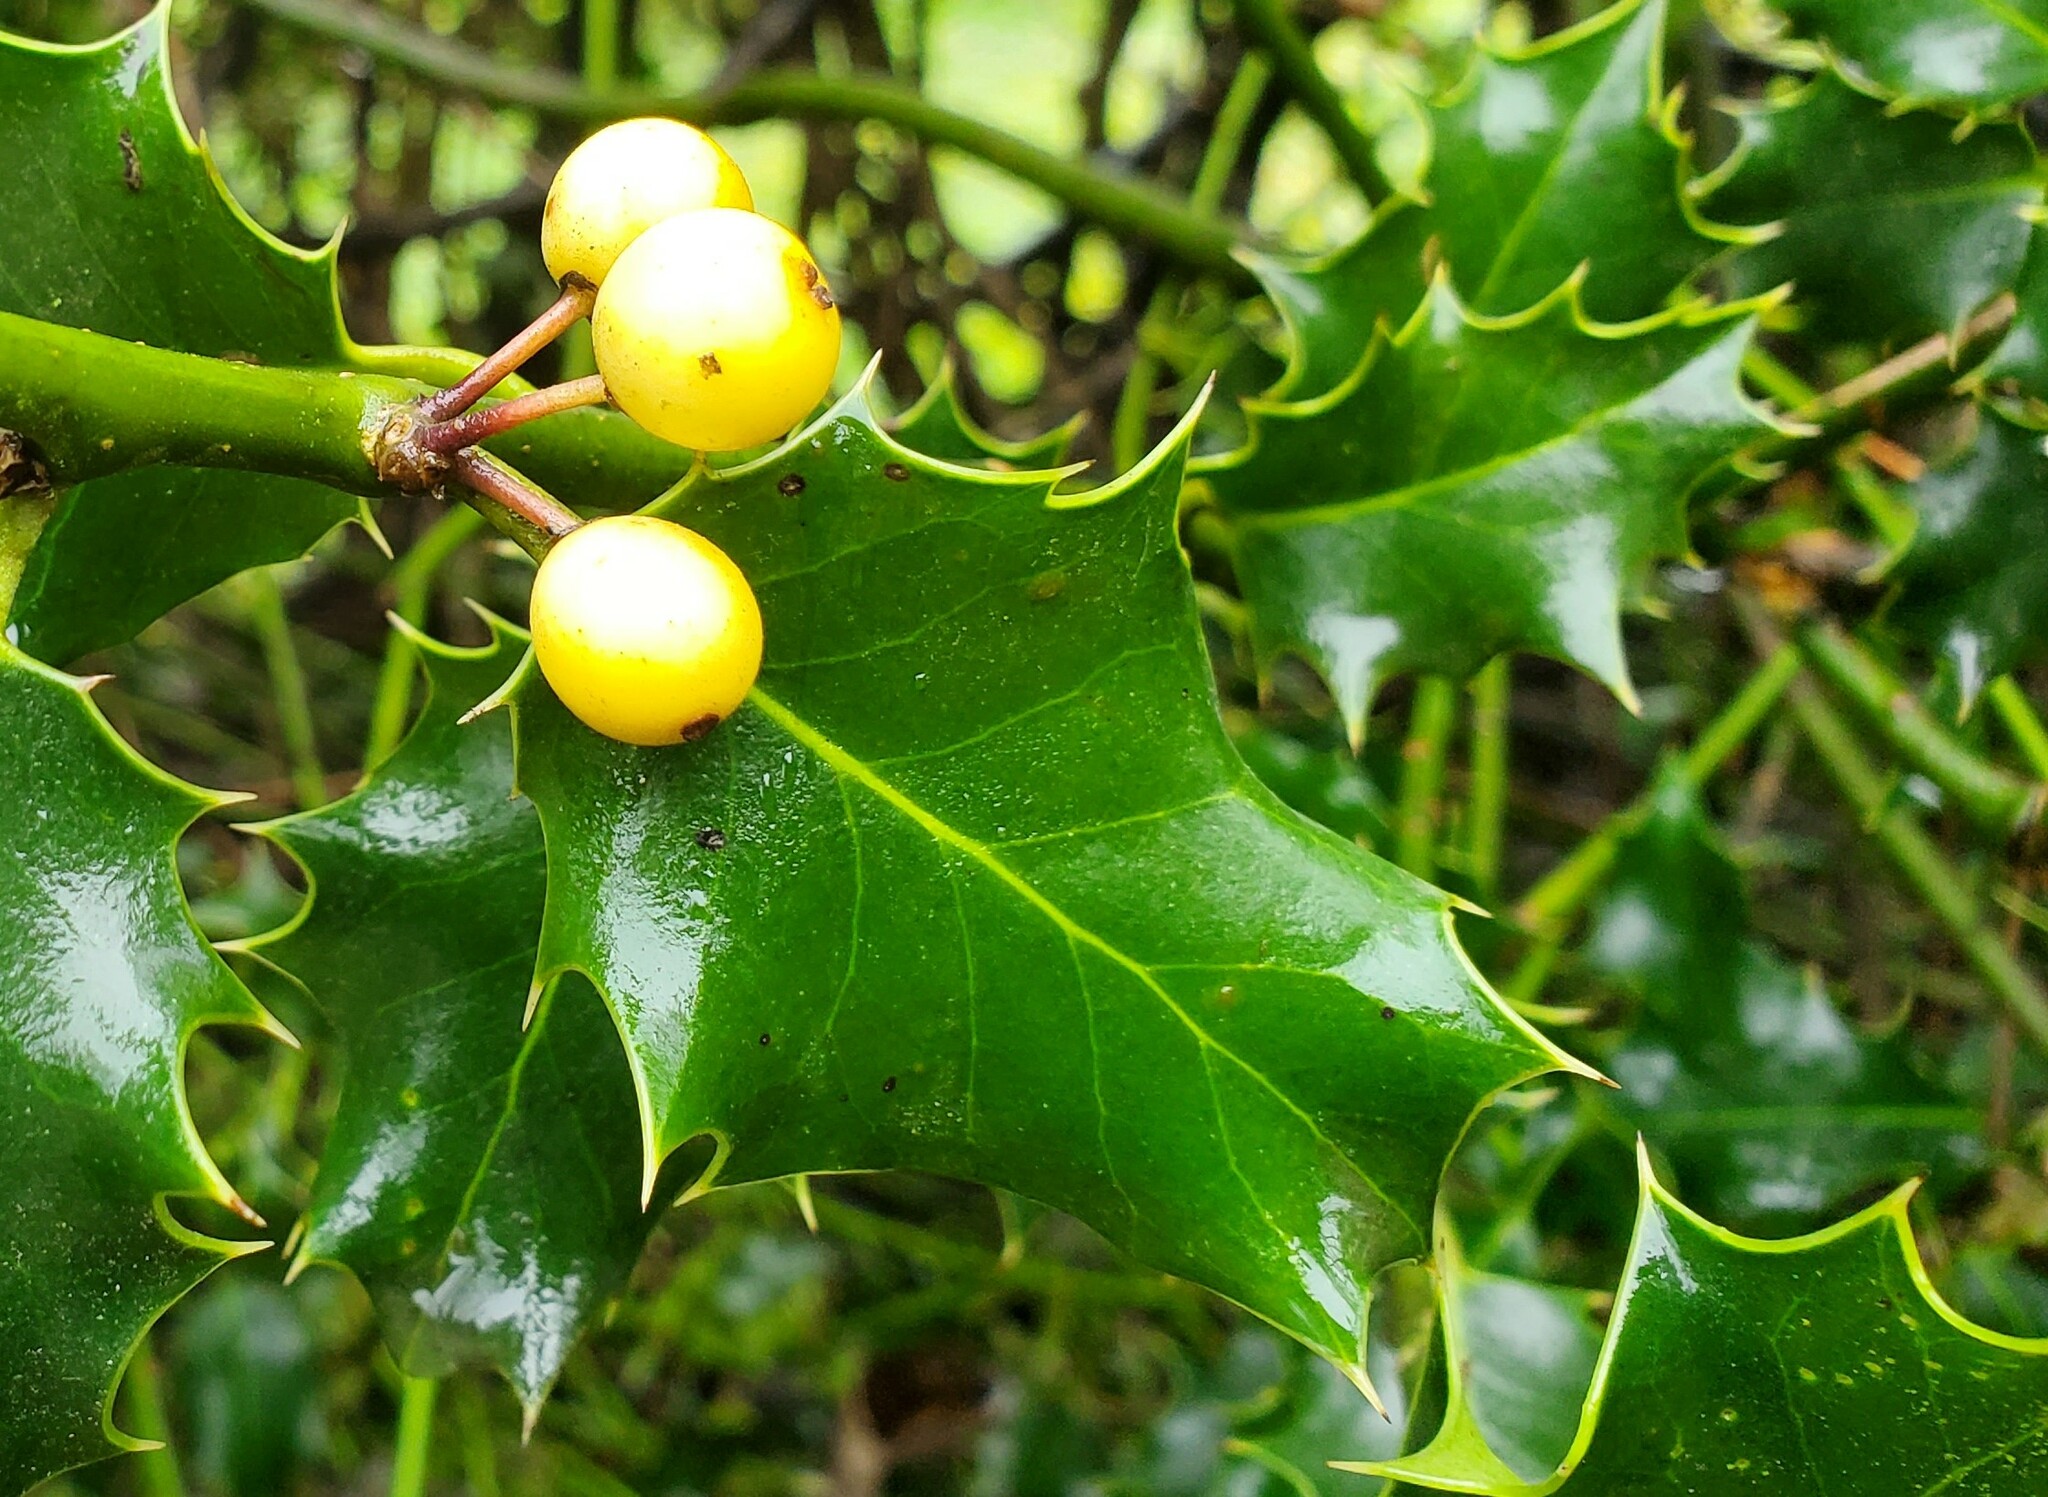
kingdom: Plantae
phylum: Tracheophyta
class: Magnoliopsida
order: Aquifoliales
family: Aquifoliaceae
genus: Ilex
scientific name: Ilex aquifolium
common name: English holly
